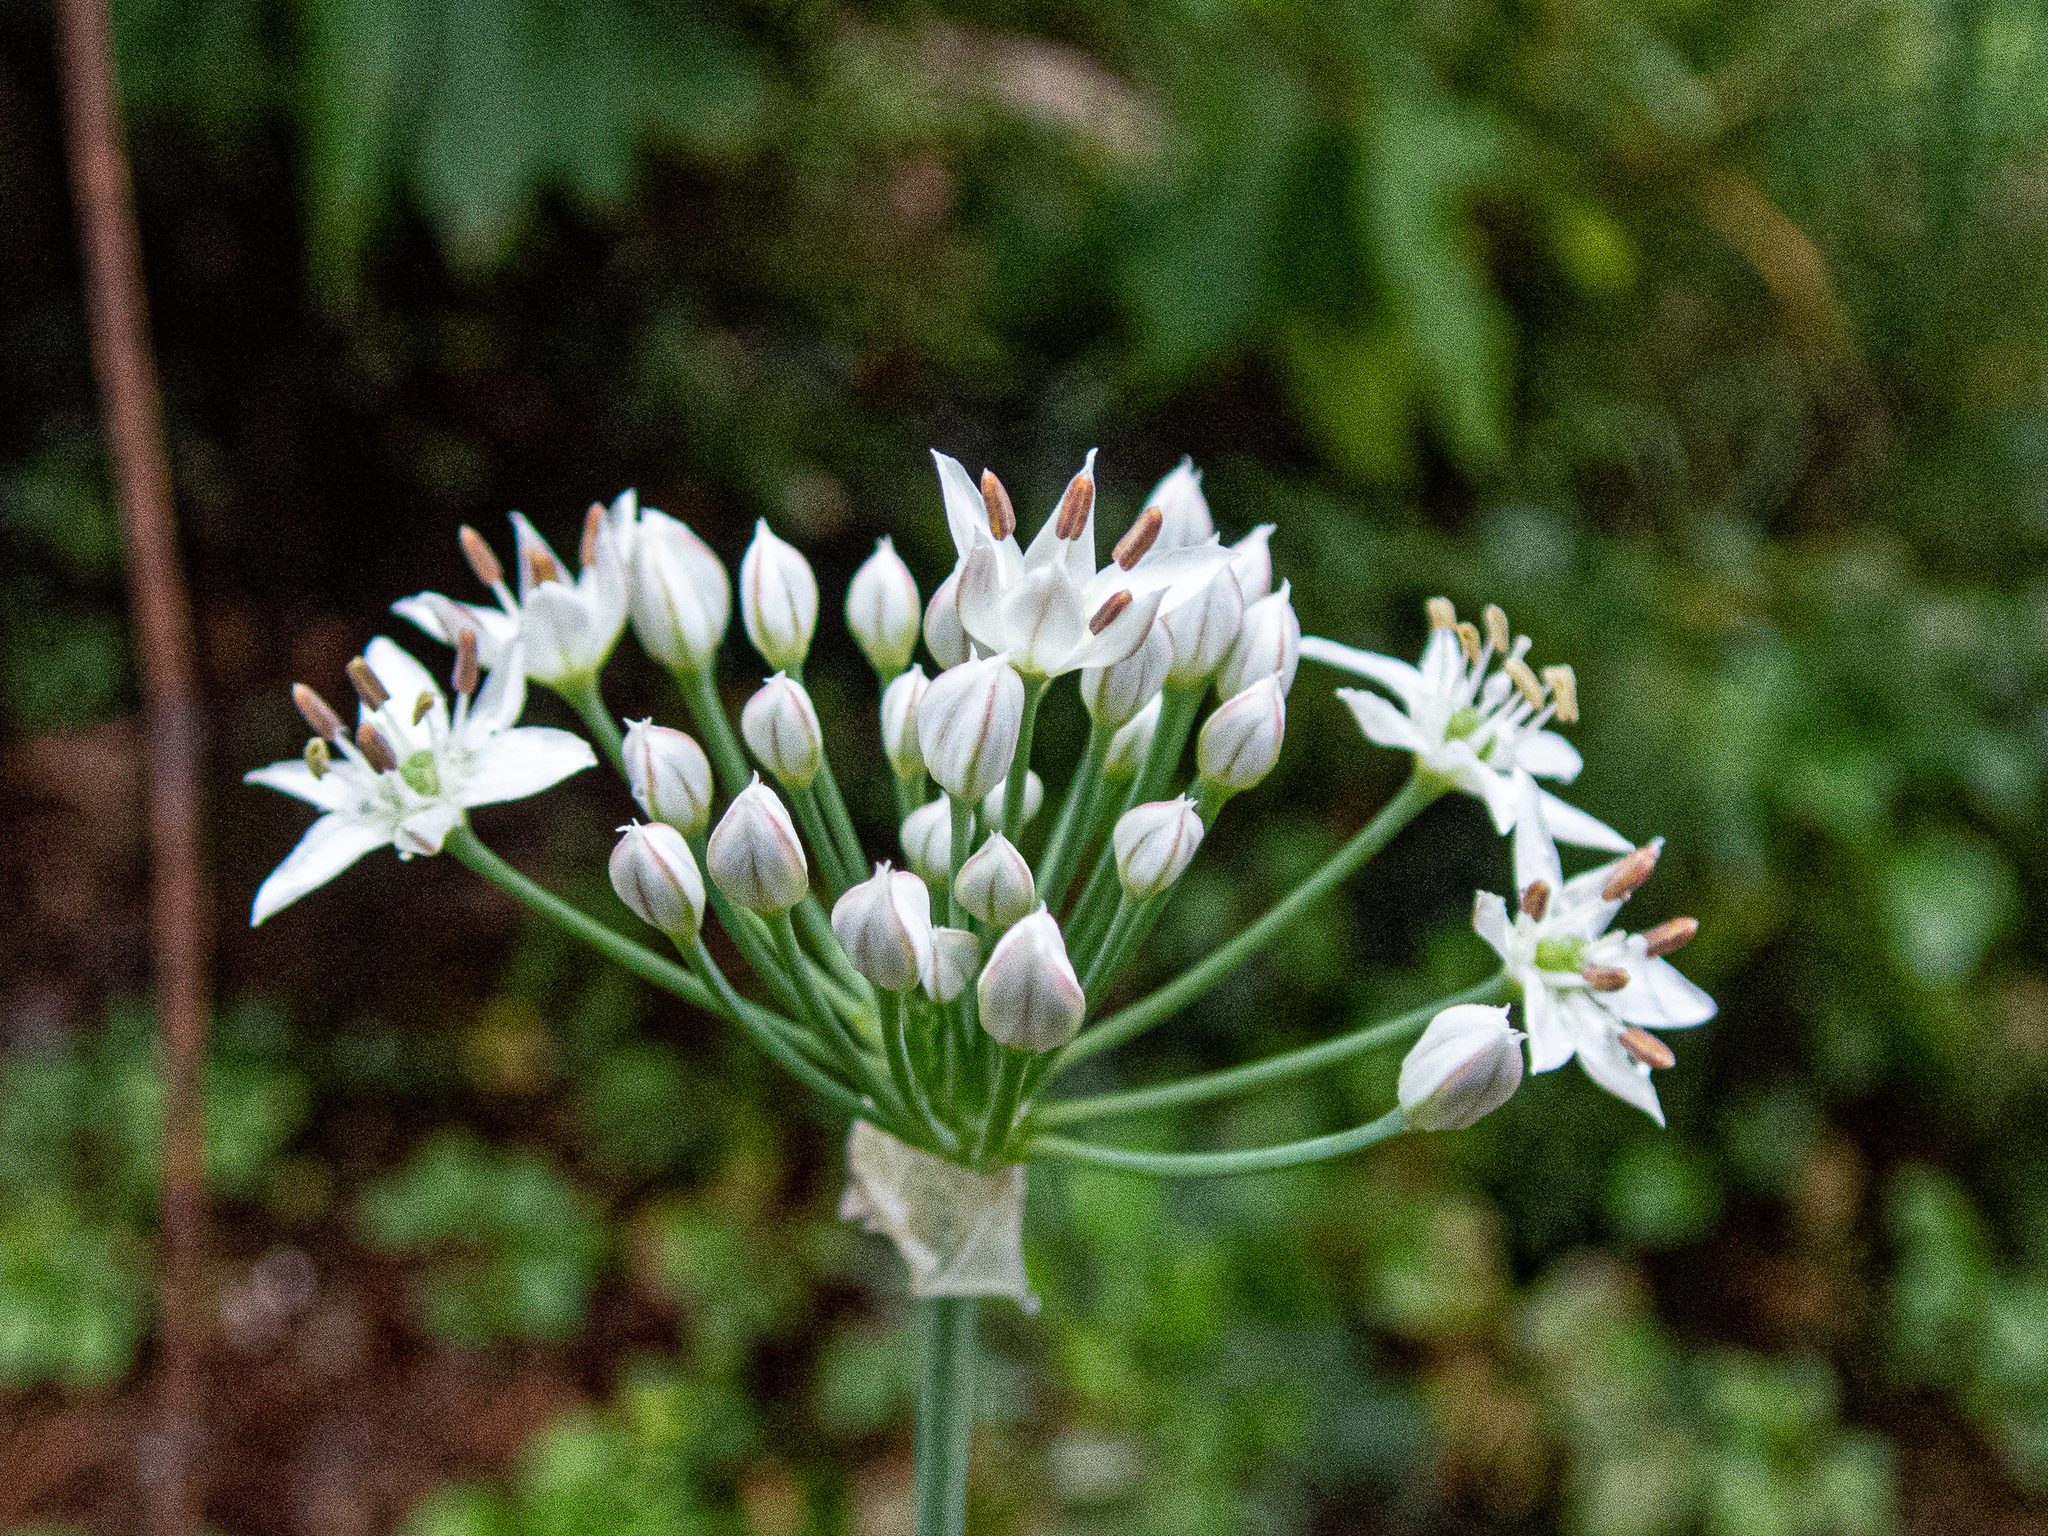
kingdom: Plantae
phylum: Tracheophyta
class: Liliopsida
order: Asparagales
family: Amaryllidaceae
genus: Allium
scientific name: Allium tuberosum
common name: Chinese chives
